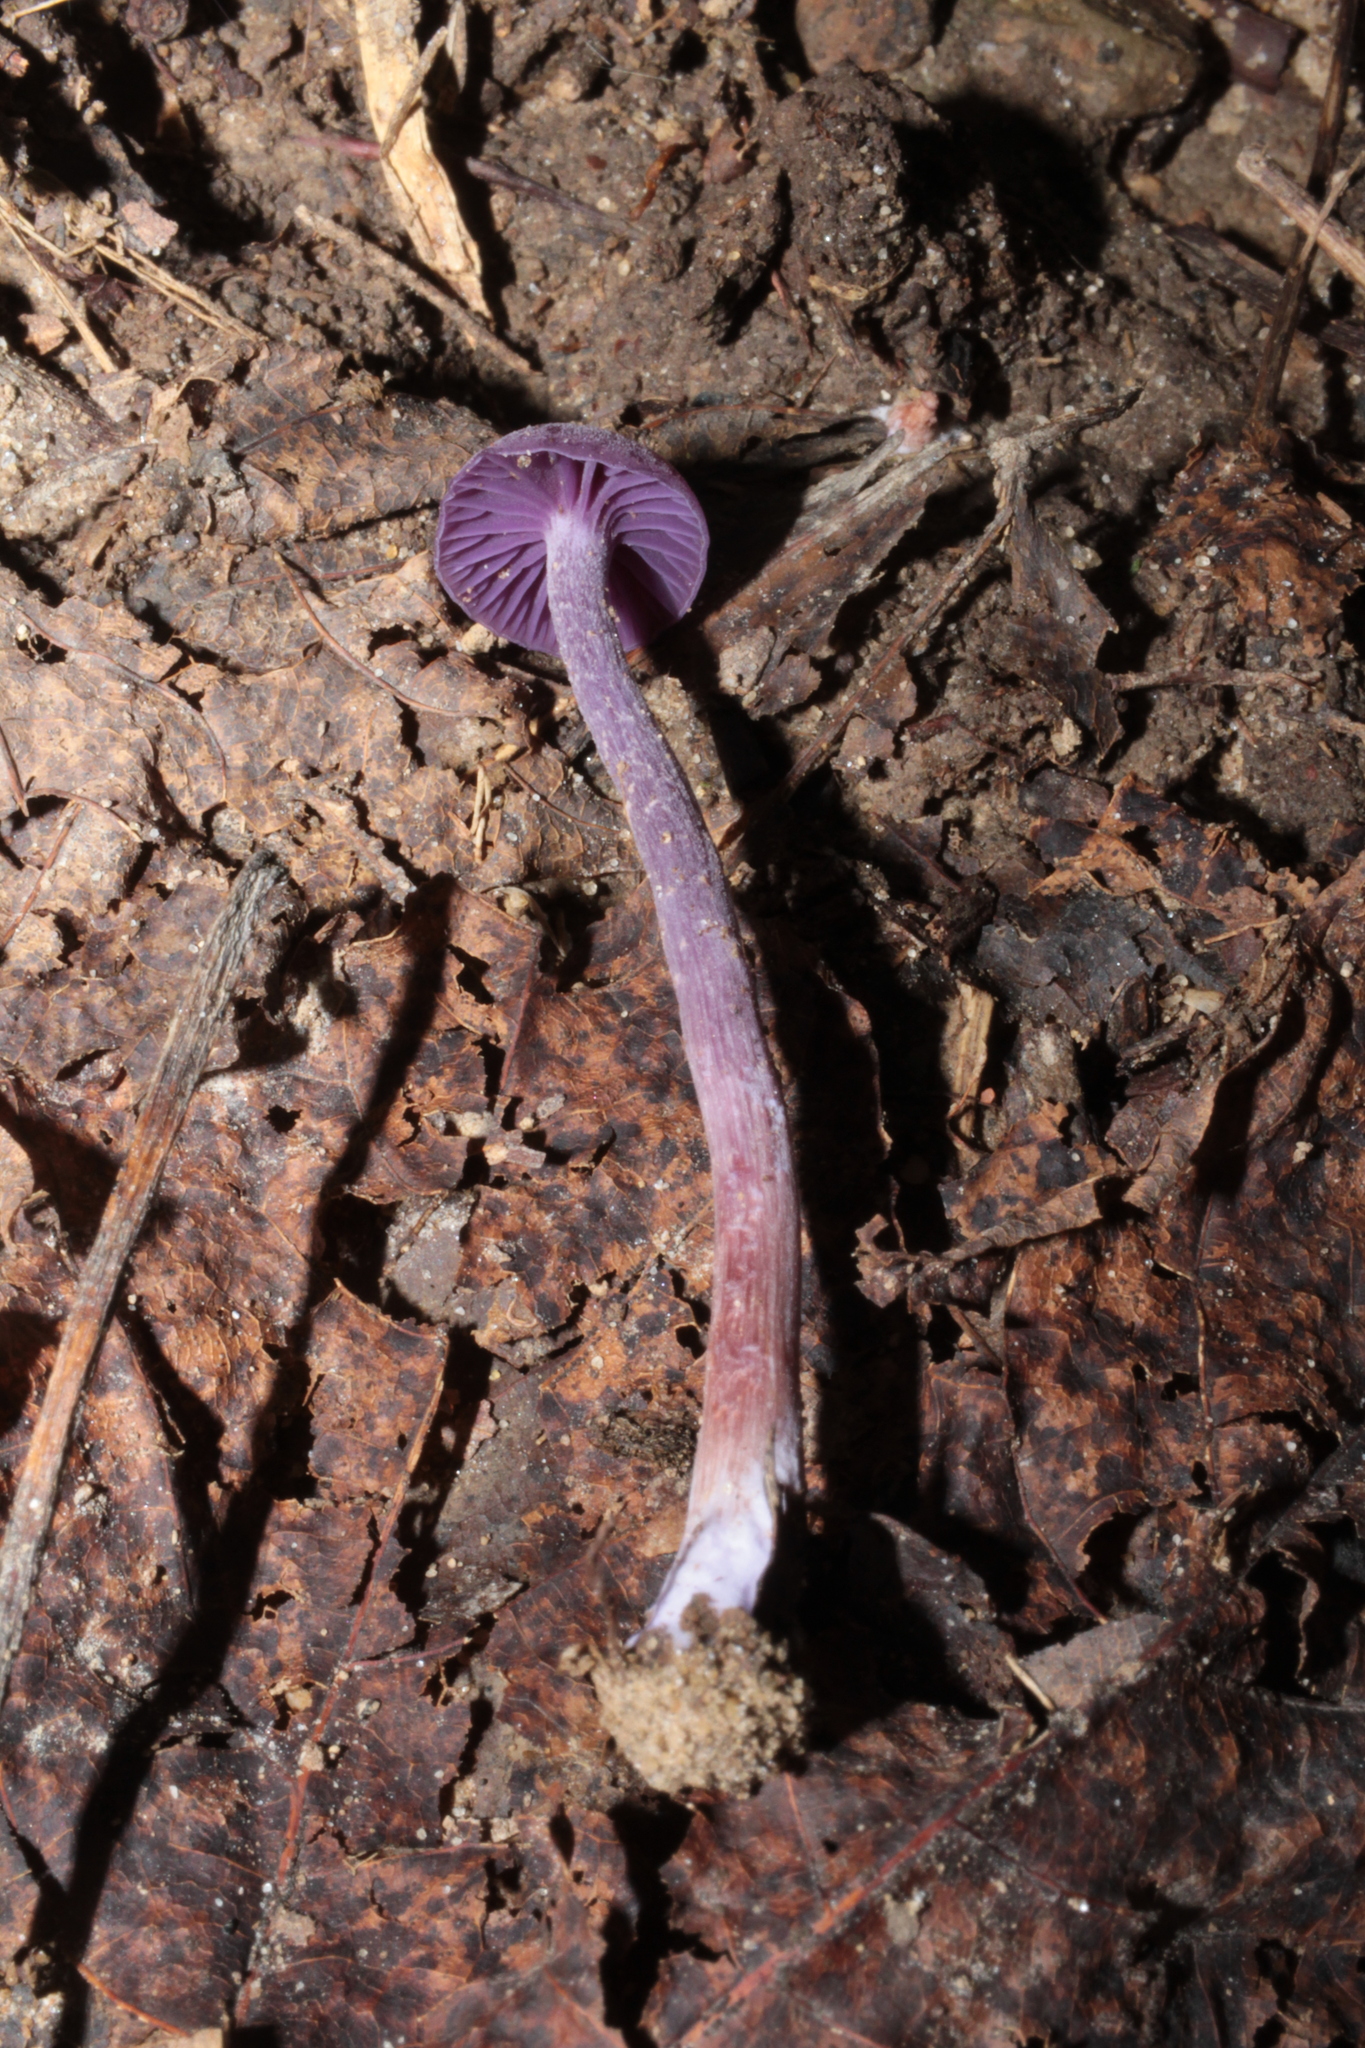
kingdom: Fungi
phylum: Basidiomycota
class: Agaricomycetes
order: Agaricales
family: Hydnangiaceae
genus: Laccaria
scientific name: Laccaria amethystina
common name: Amethyst deceiver
